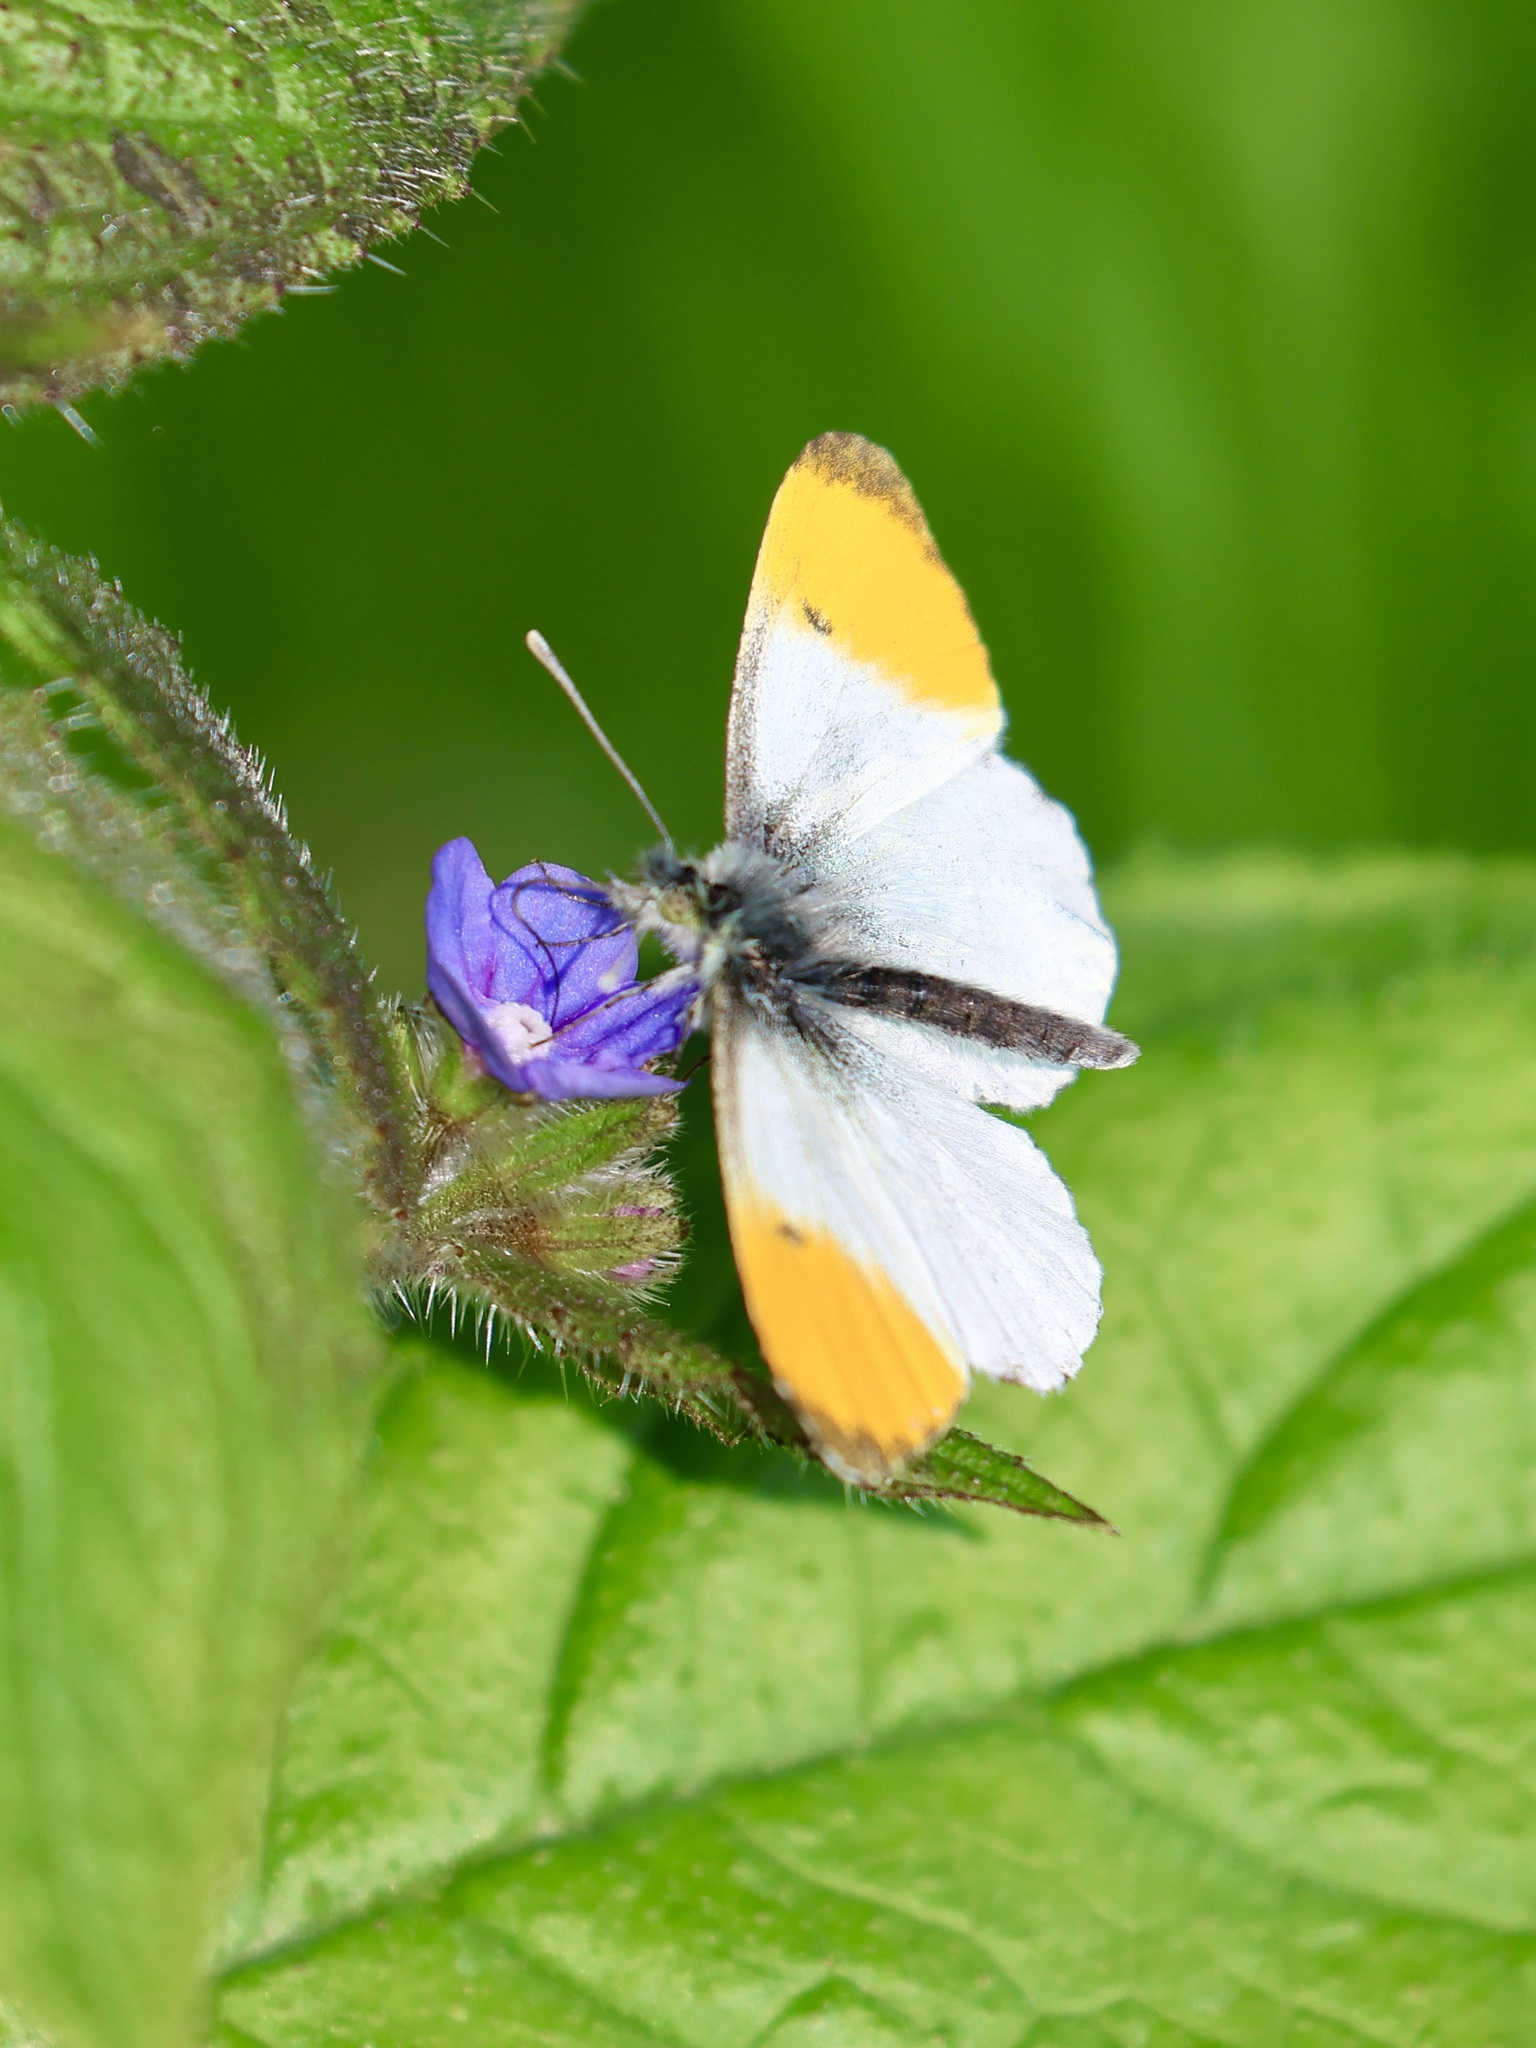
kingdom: Animalia
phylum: Arthropoda
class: Insecta
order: Lepidoptera
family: Pieridae
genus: Anthocharis
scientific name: Anthocharis cardamines
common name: Orange-tip
